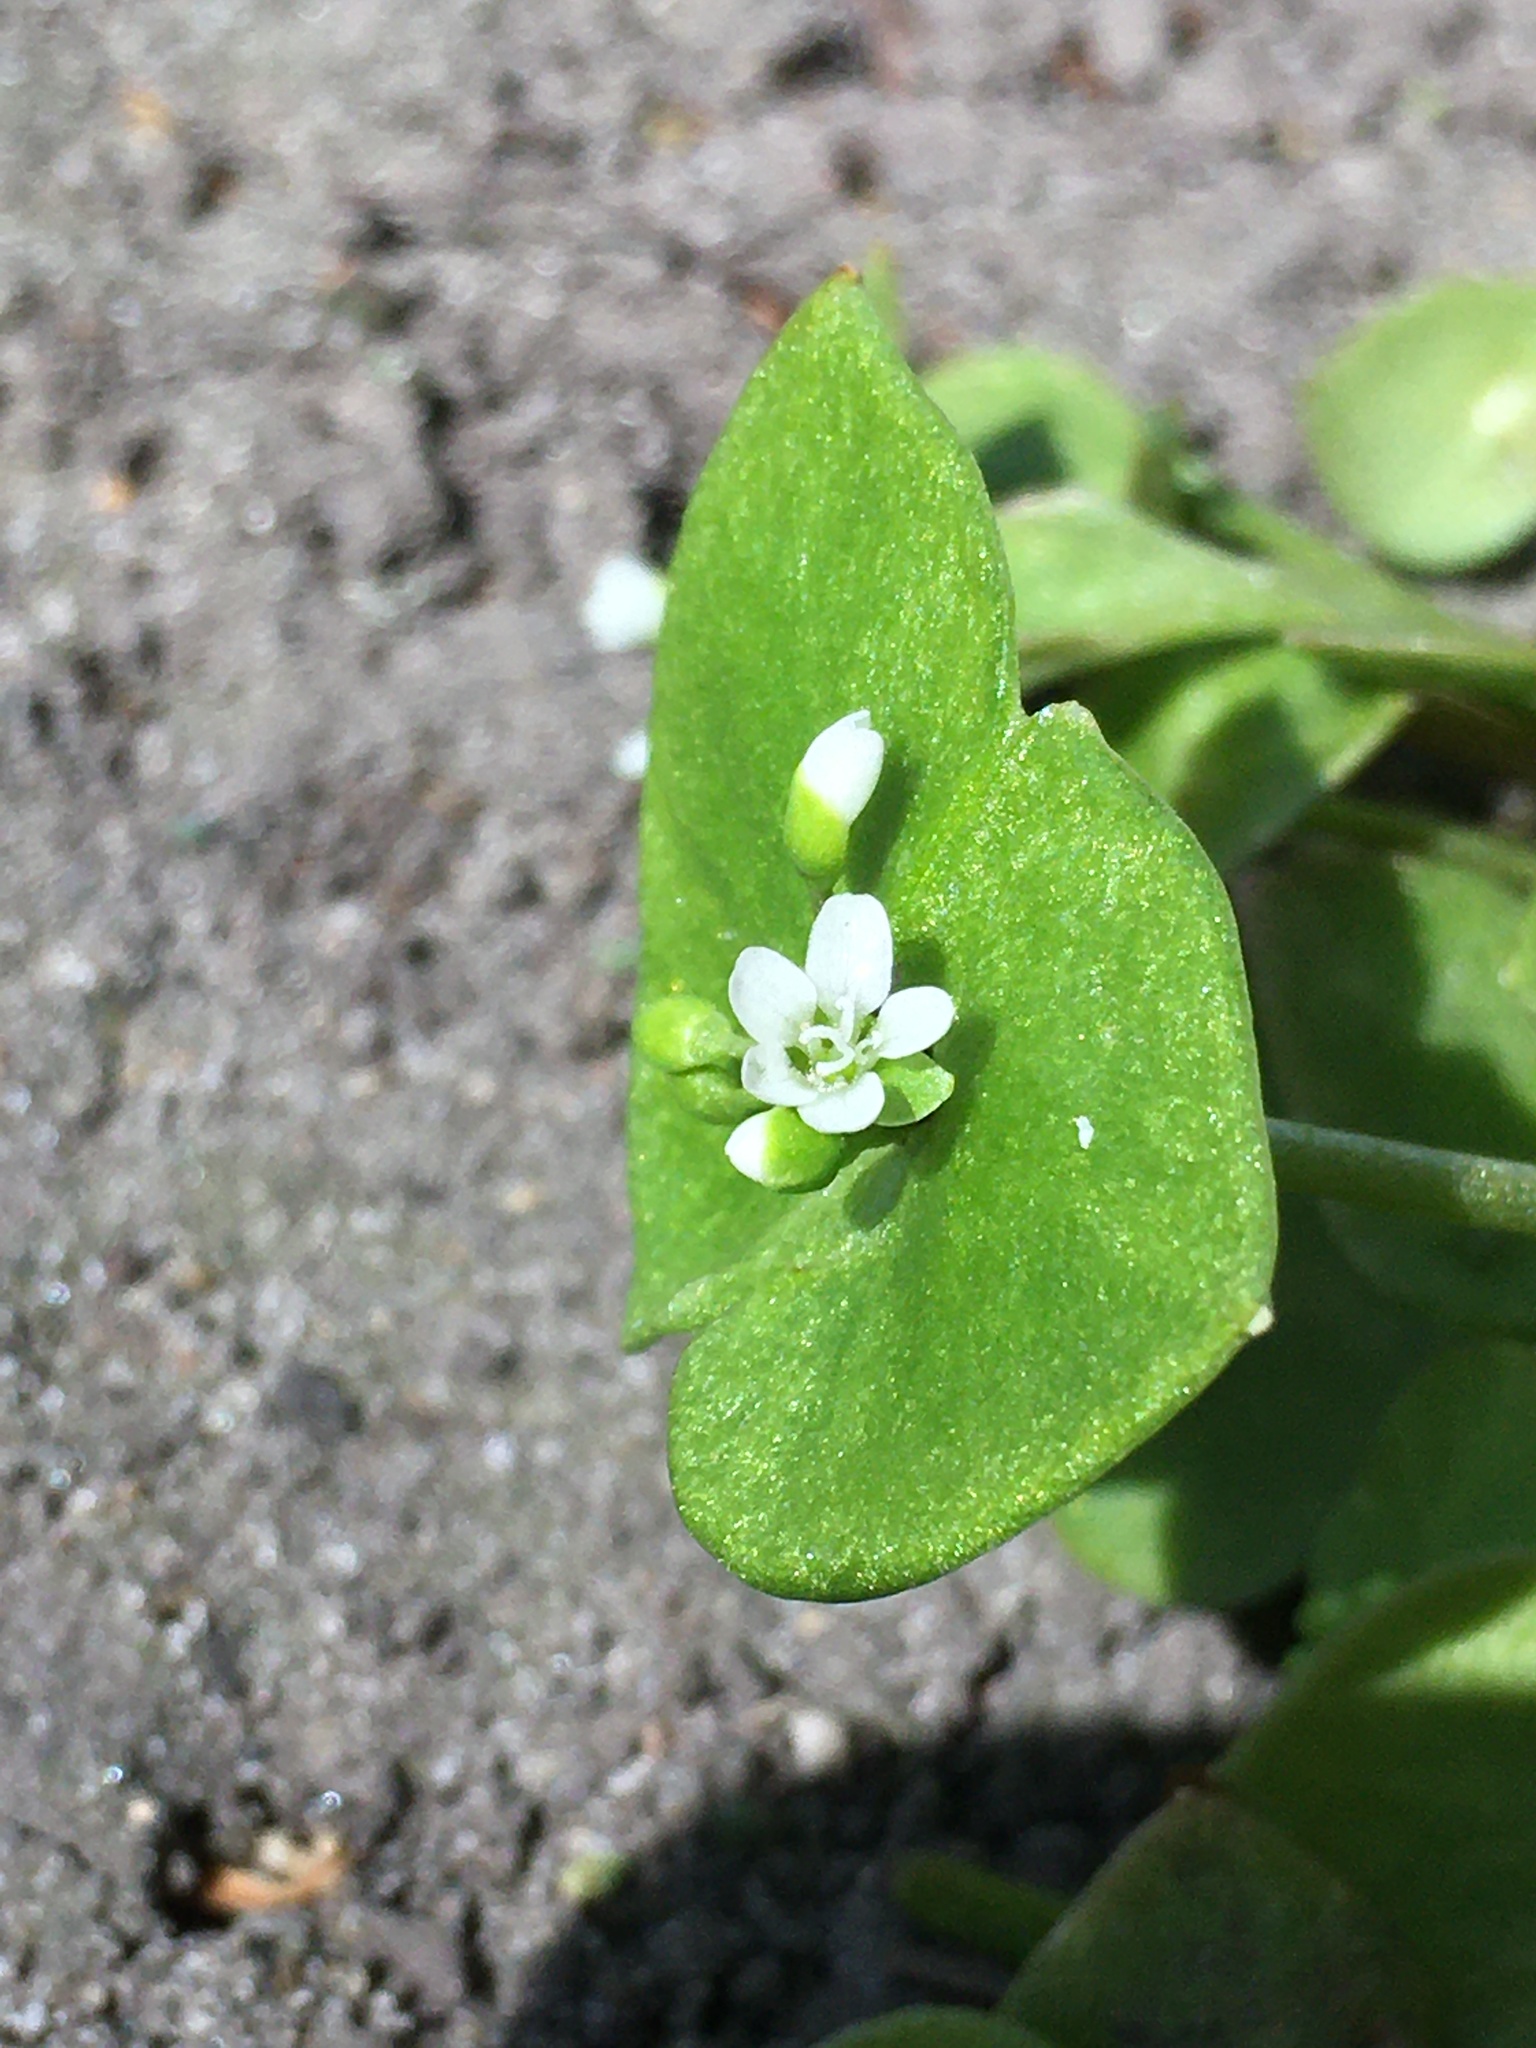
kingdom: Plantae
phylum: Tracheophyta
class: Magnoliopsida
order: Caryophyllales
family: Montiaceae
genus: Claytonia
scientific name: Claytonia perfoliata
